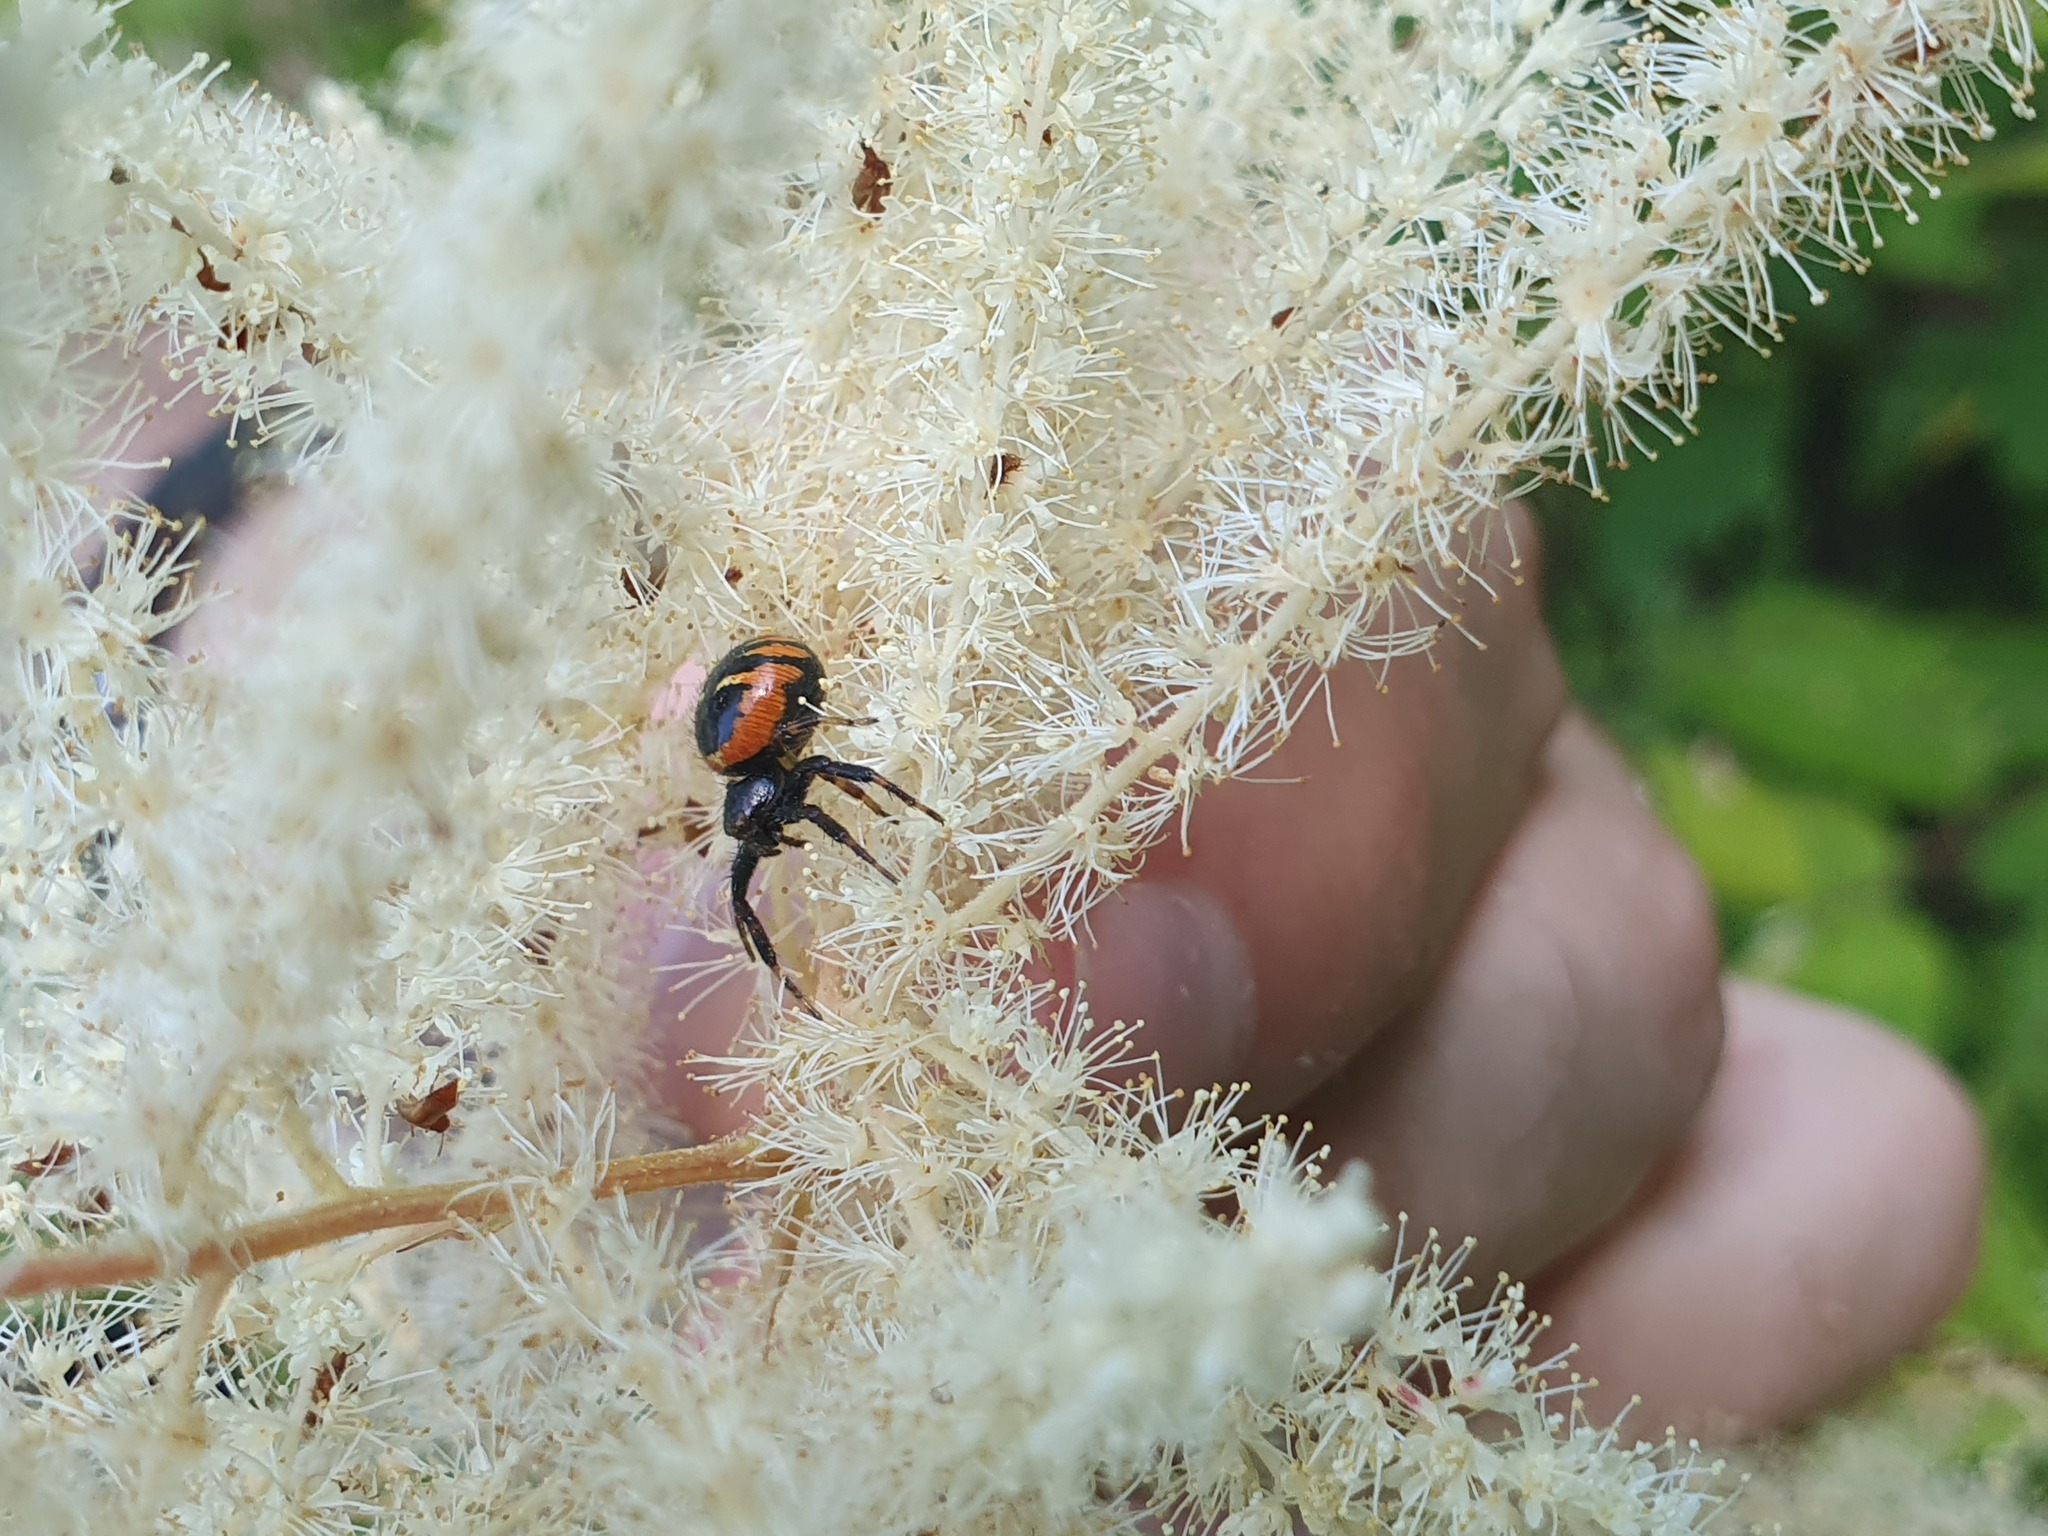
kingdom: Animalia
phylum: Arthropoda
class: Arachnida
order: Araneae
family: Thomisidae
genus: Synema
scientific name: Synema globosum
